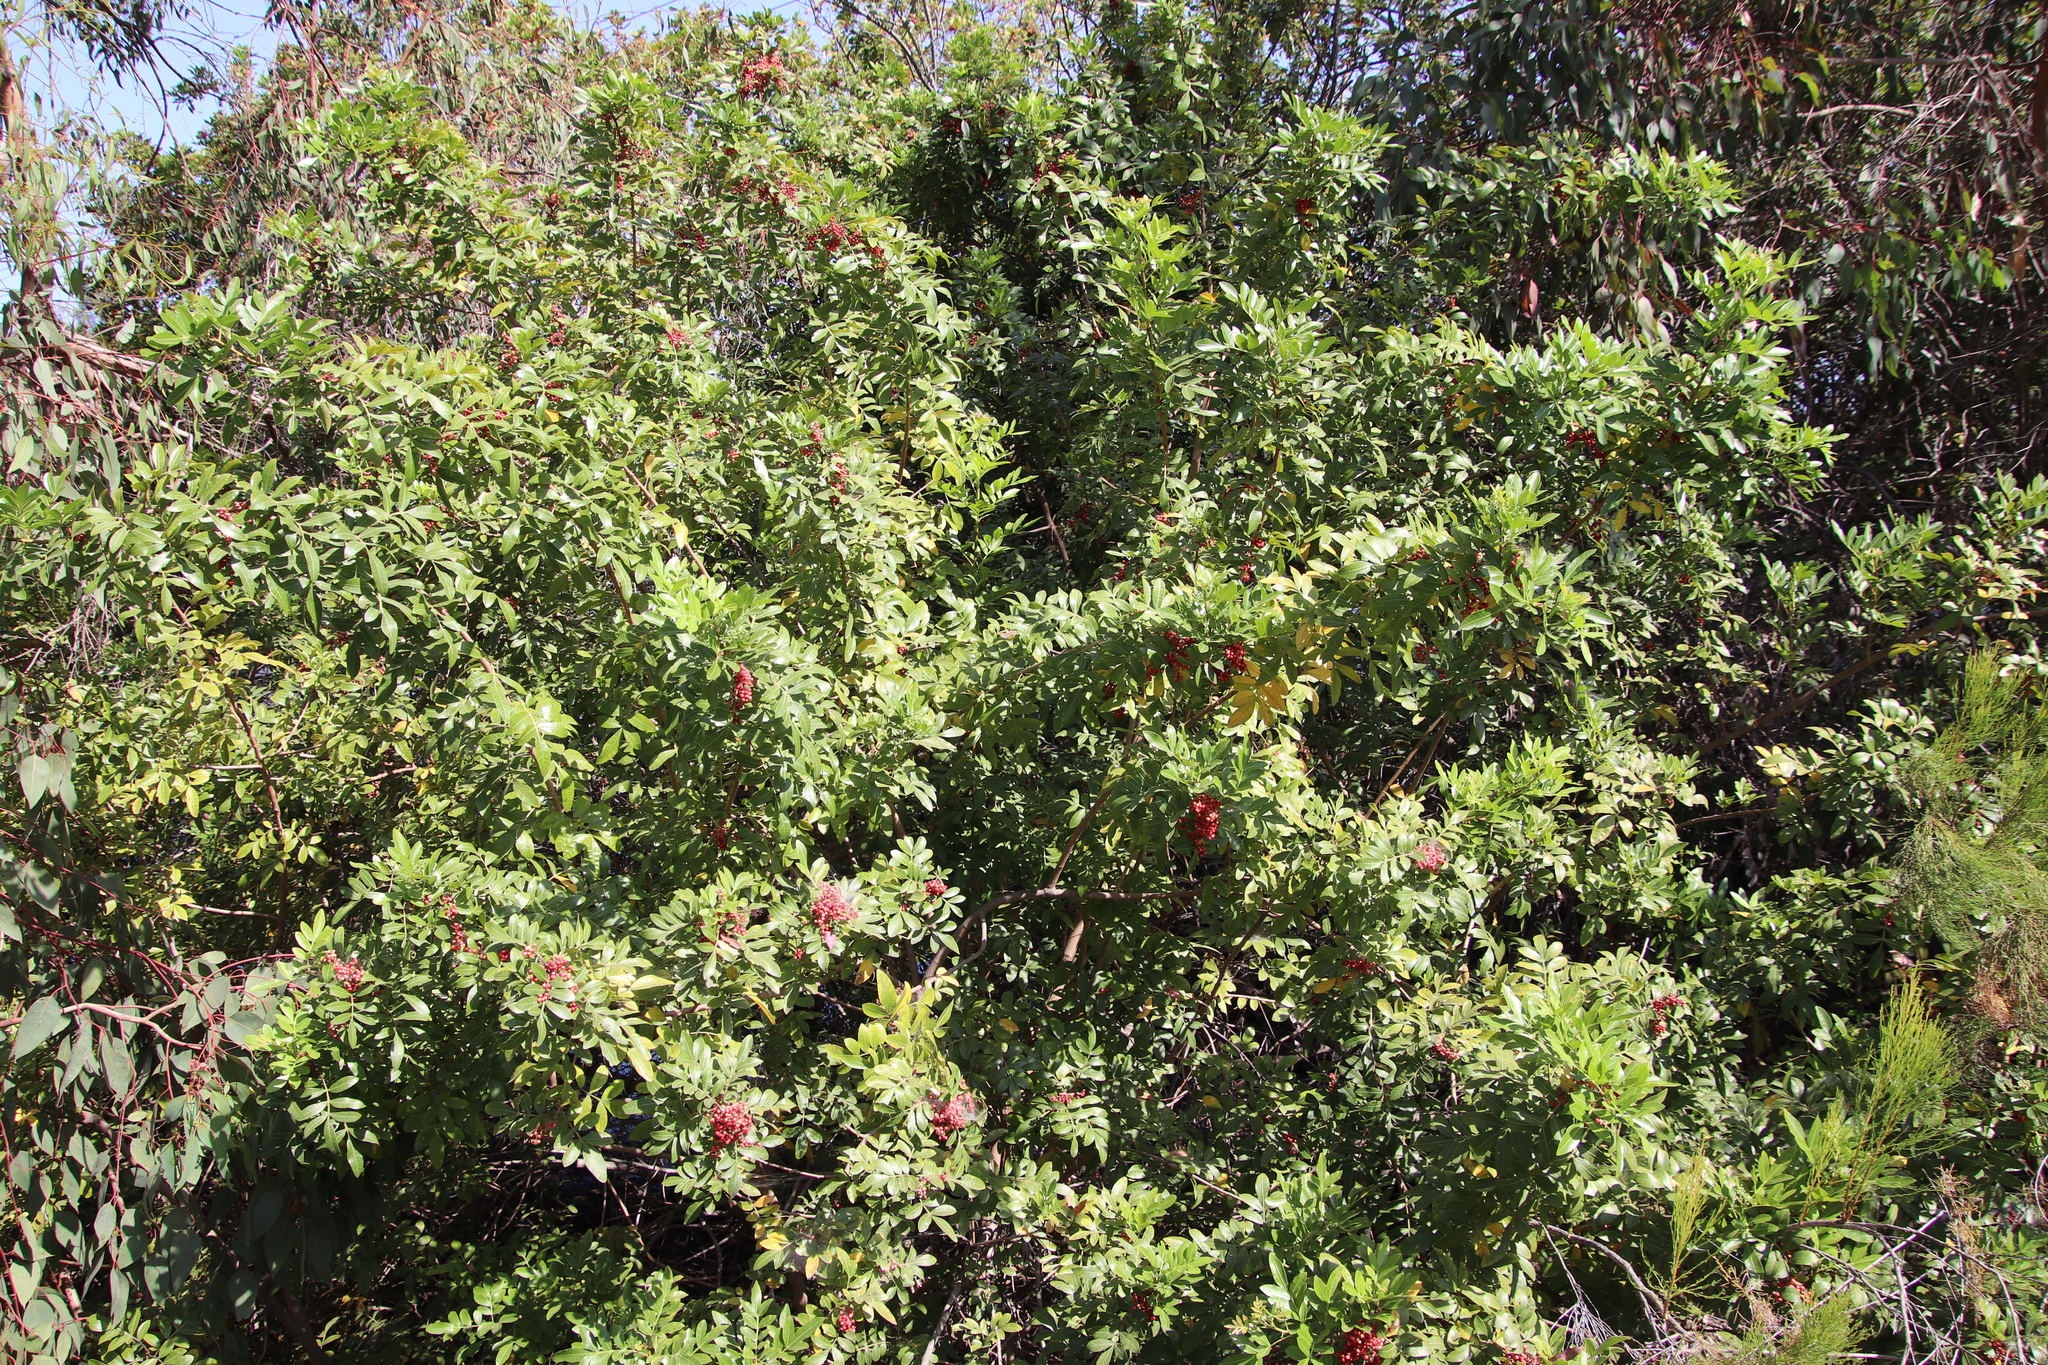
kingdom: Plantae
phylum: Tracheophyta
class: Magnoliopsida
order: Sapindales
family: Anacardiaceae
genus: Schinus
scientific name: Schinus terebinthifolia
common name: Brazilian peppertree
